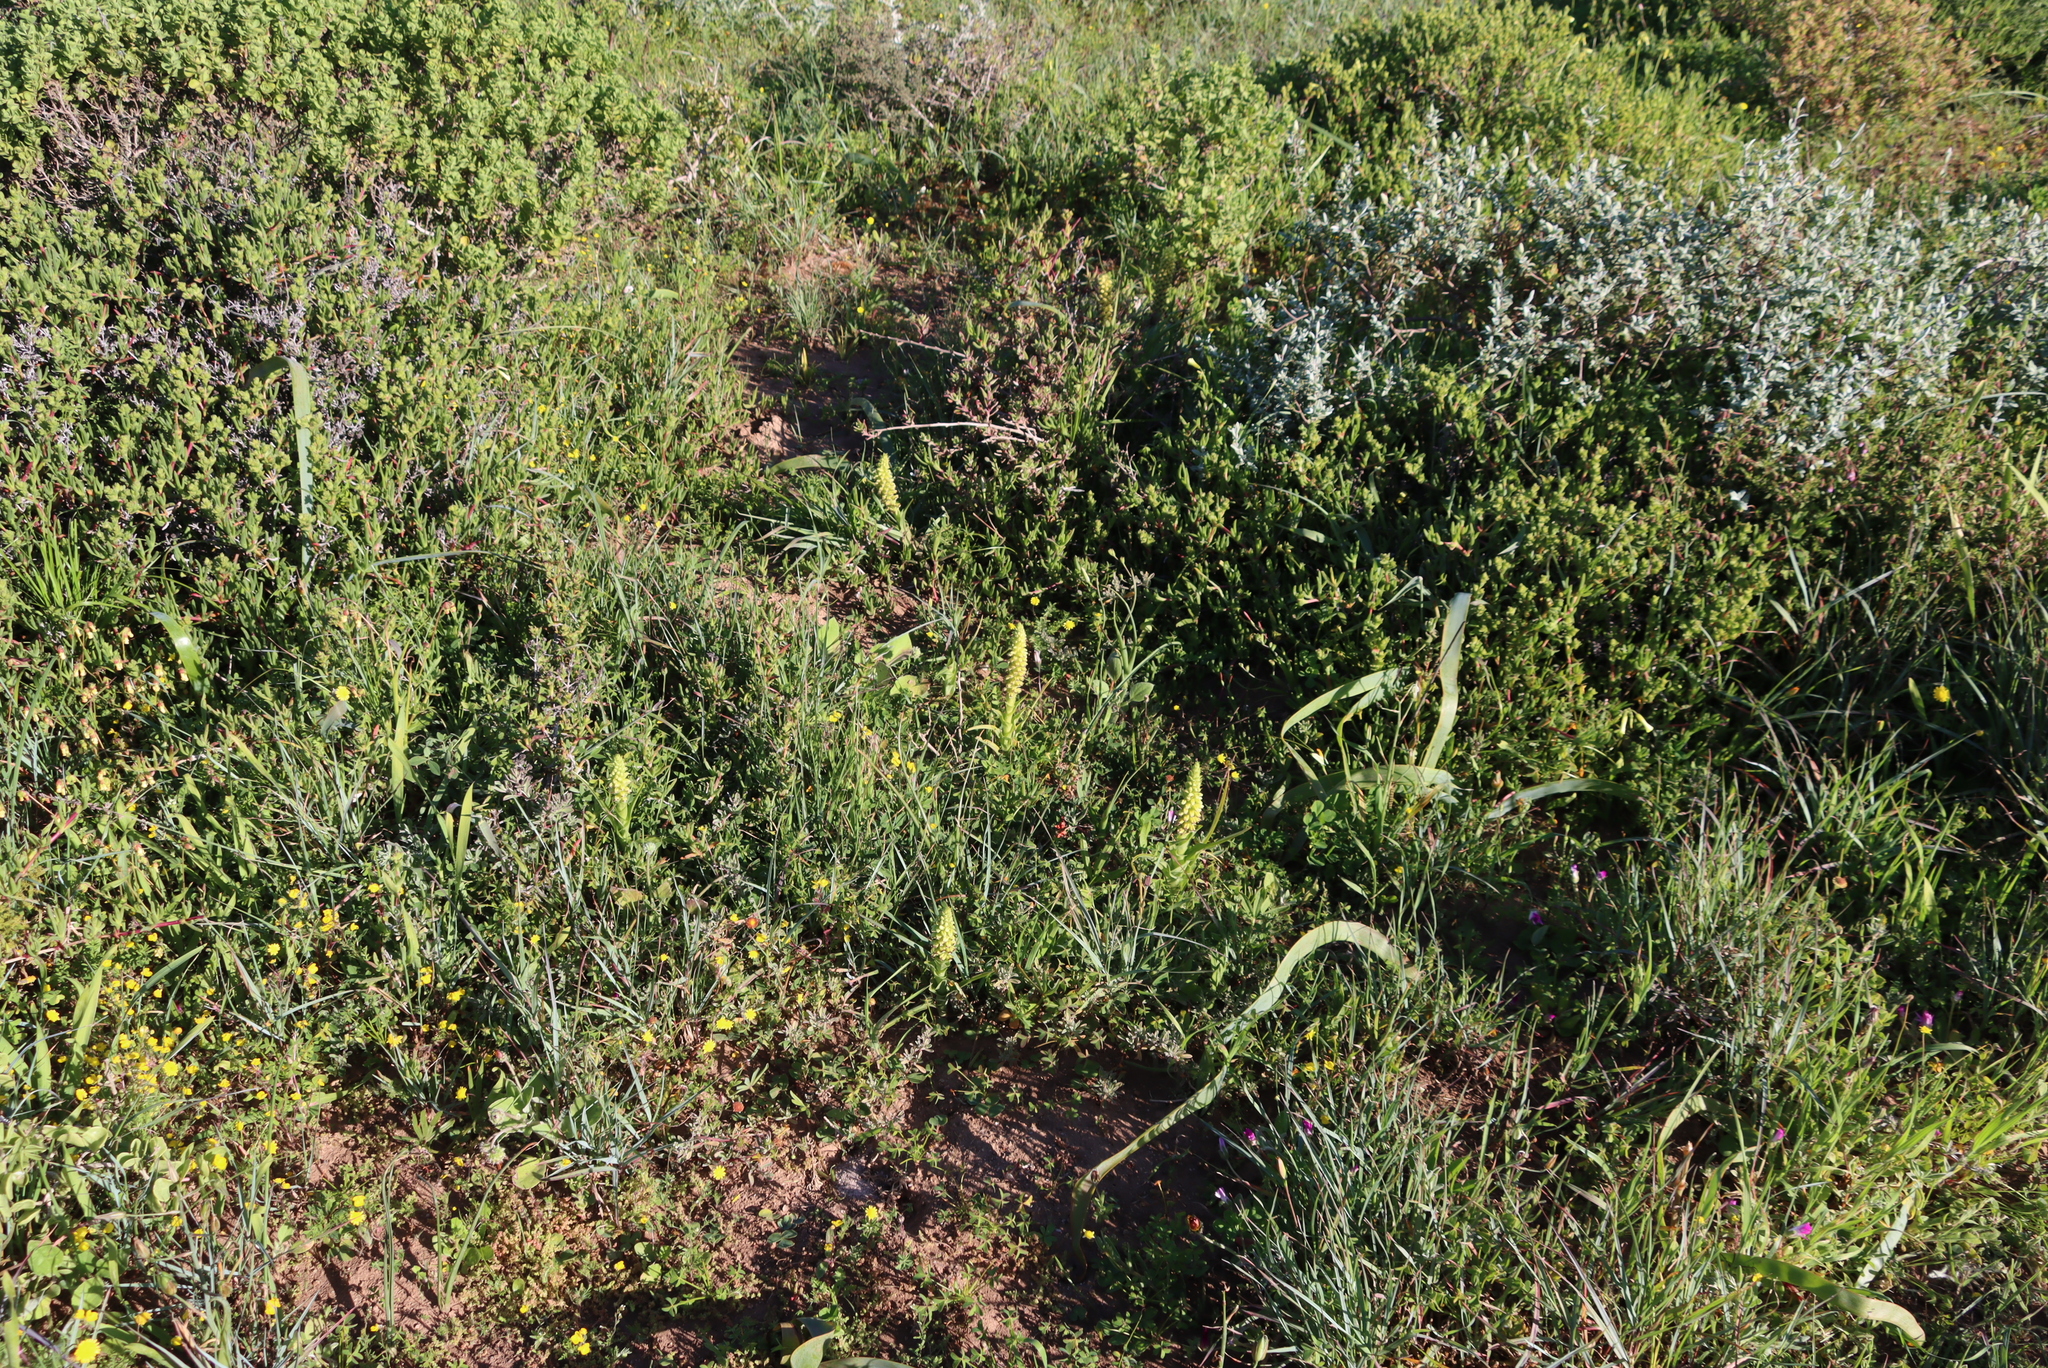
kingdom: Plantae
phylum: Tracheophyta
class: Liliopsida
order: Asparagales
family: Orchidaceae
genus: Corycium
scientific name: Corycium orobanchoides
